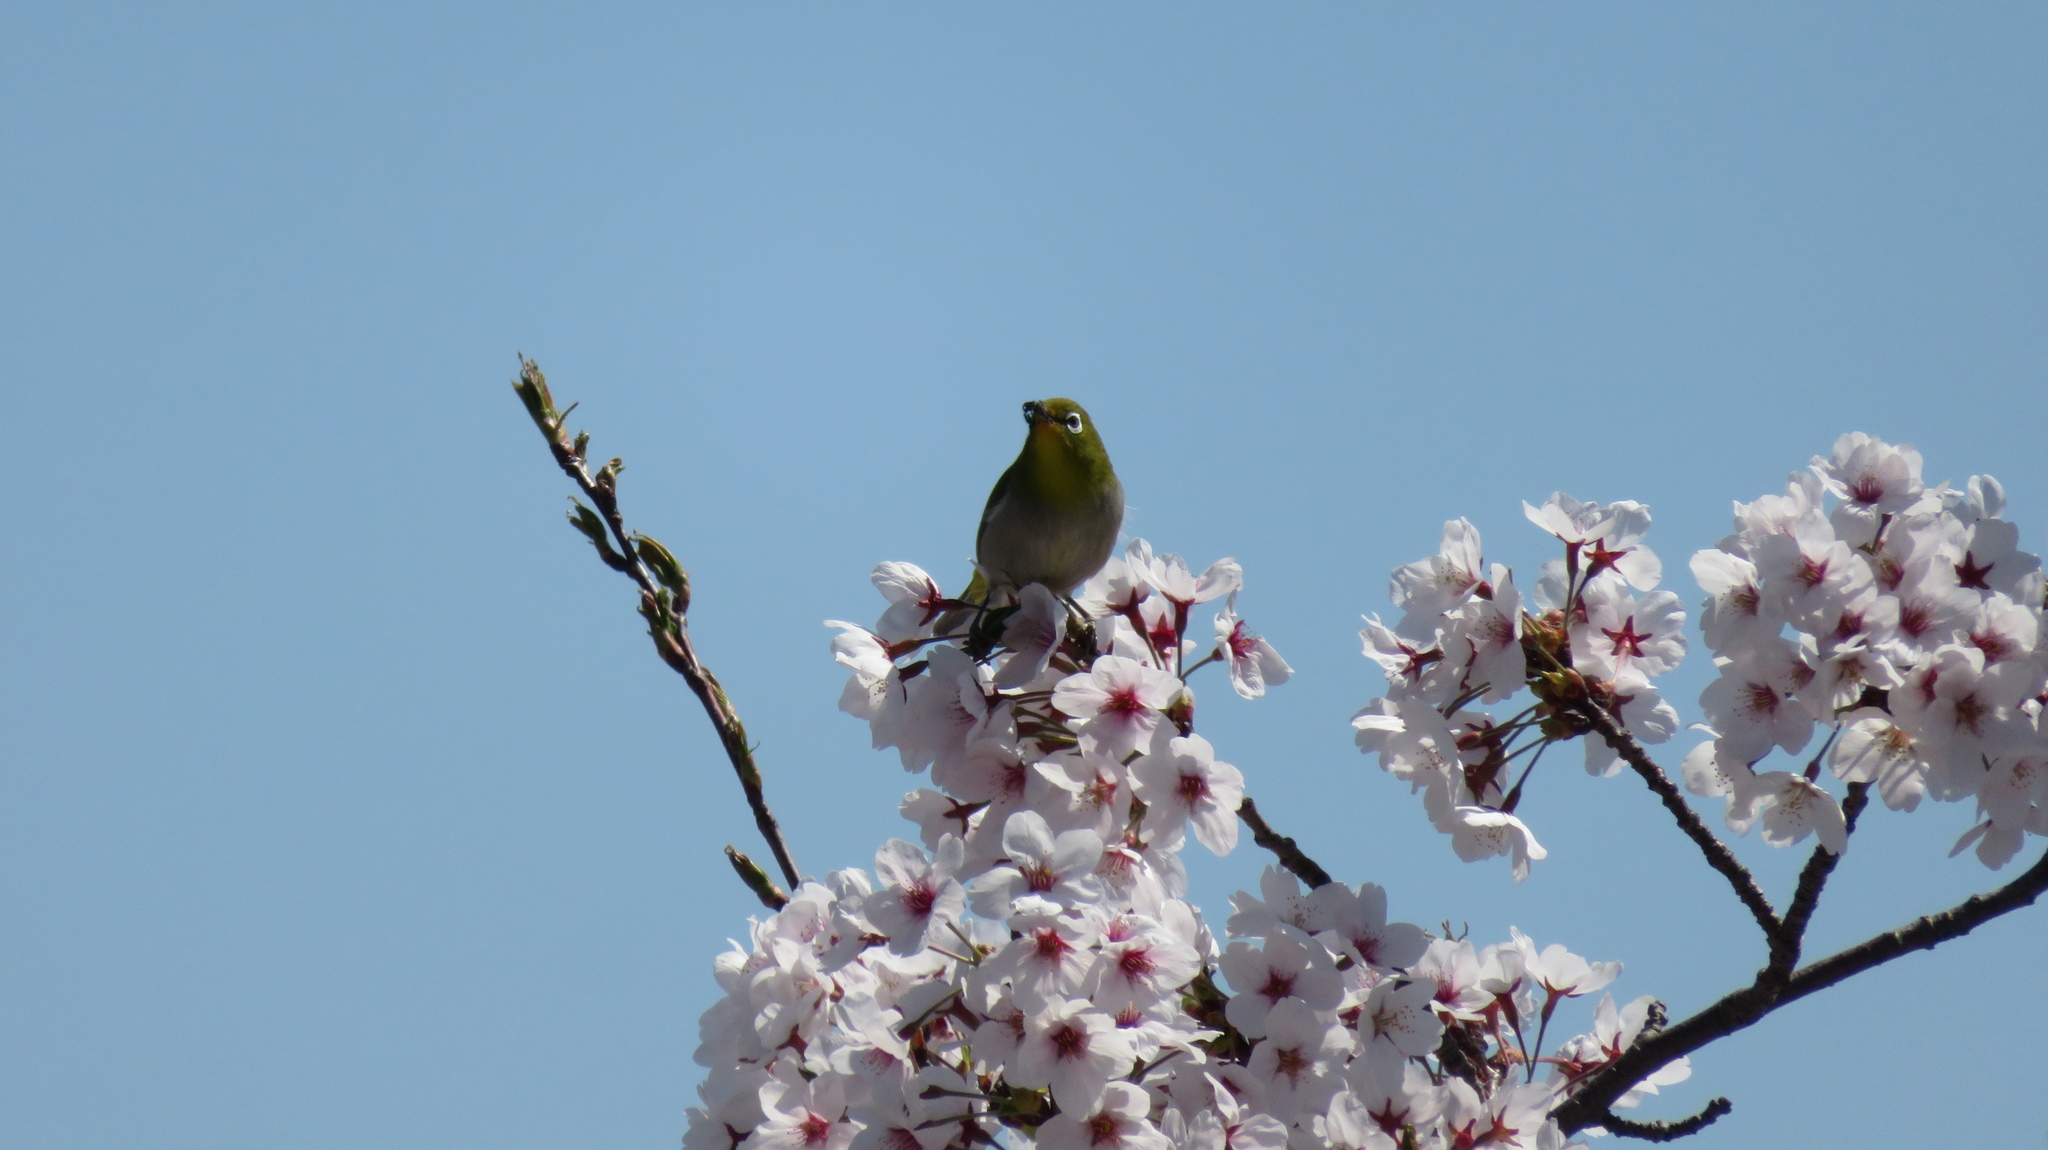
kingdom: Animalia
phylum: Chordata
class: Aves
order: Passeriformes
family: Zosteropidae
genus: Zosterops
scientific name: Zosterops japonicus
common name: Japanese white-eye
